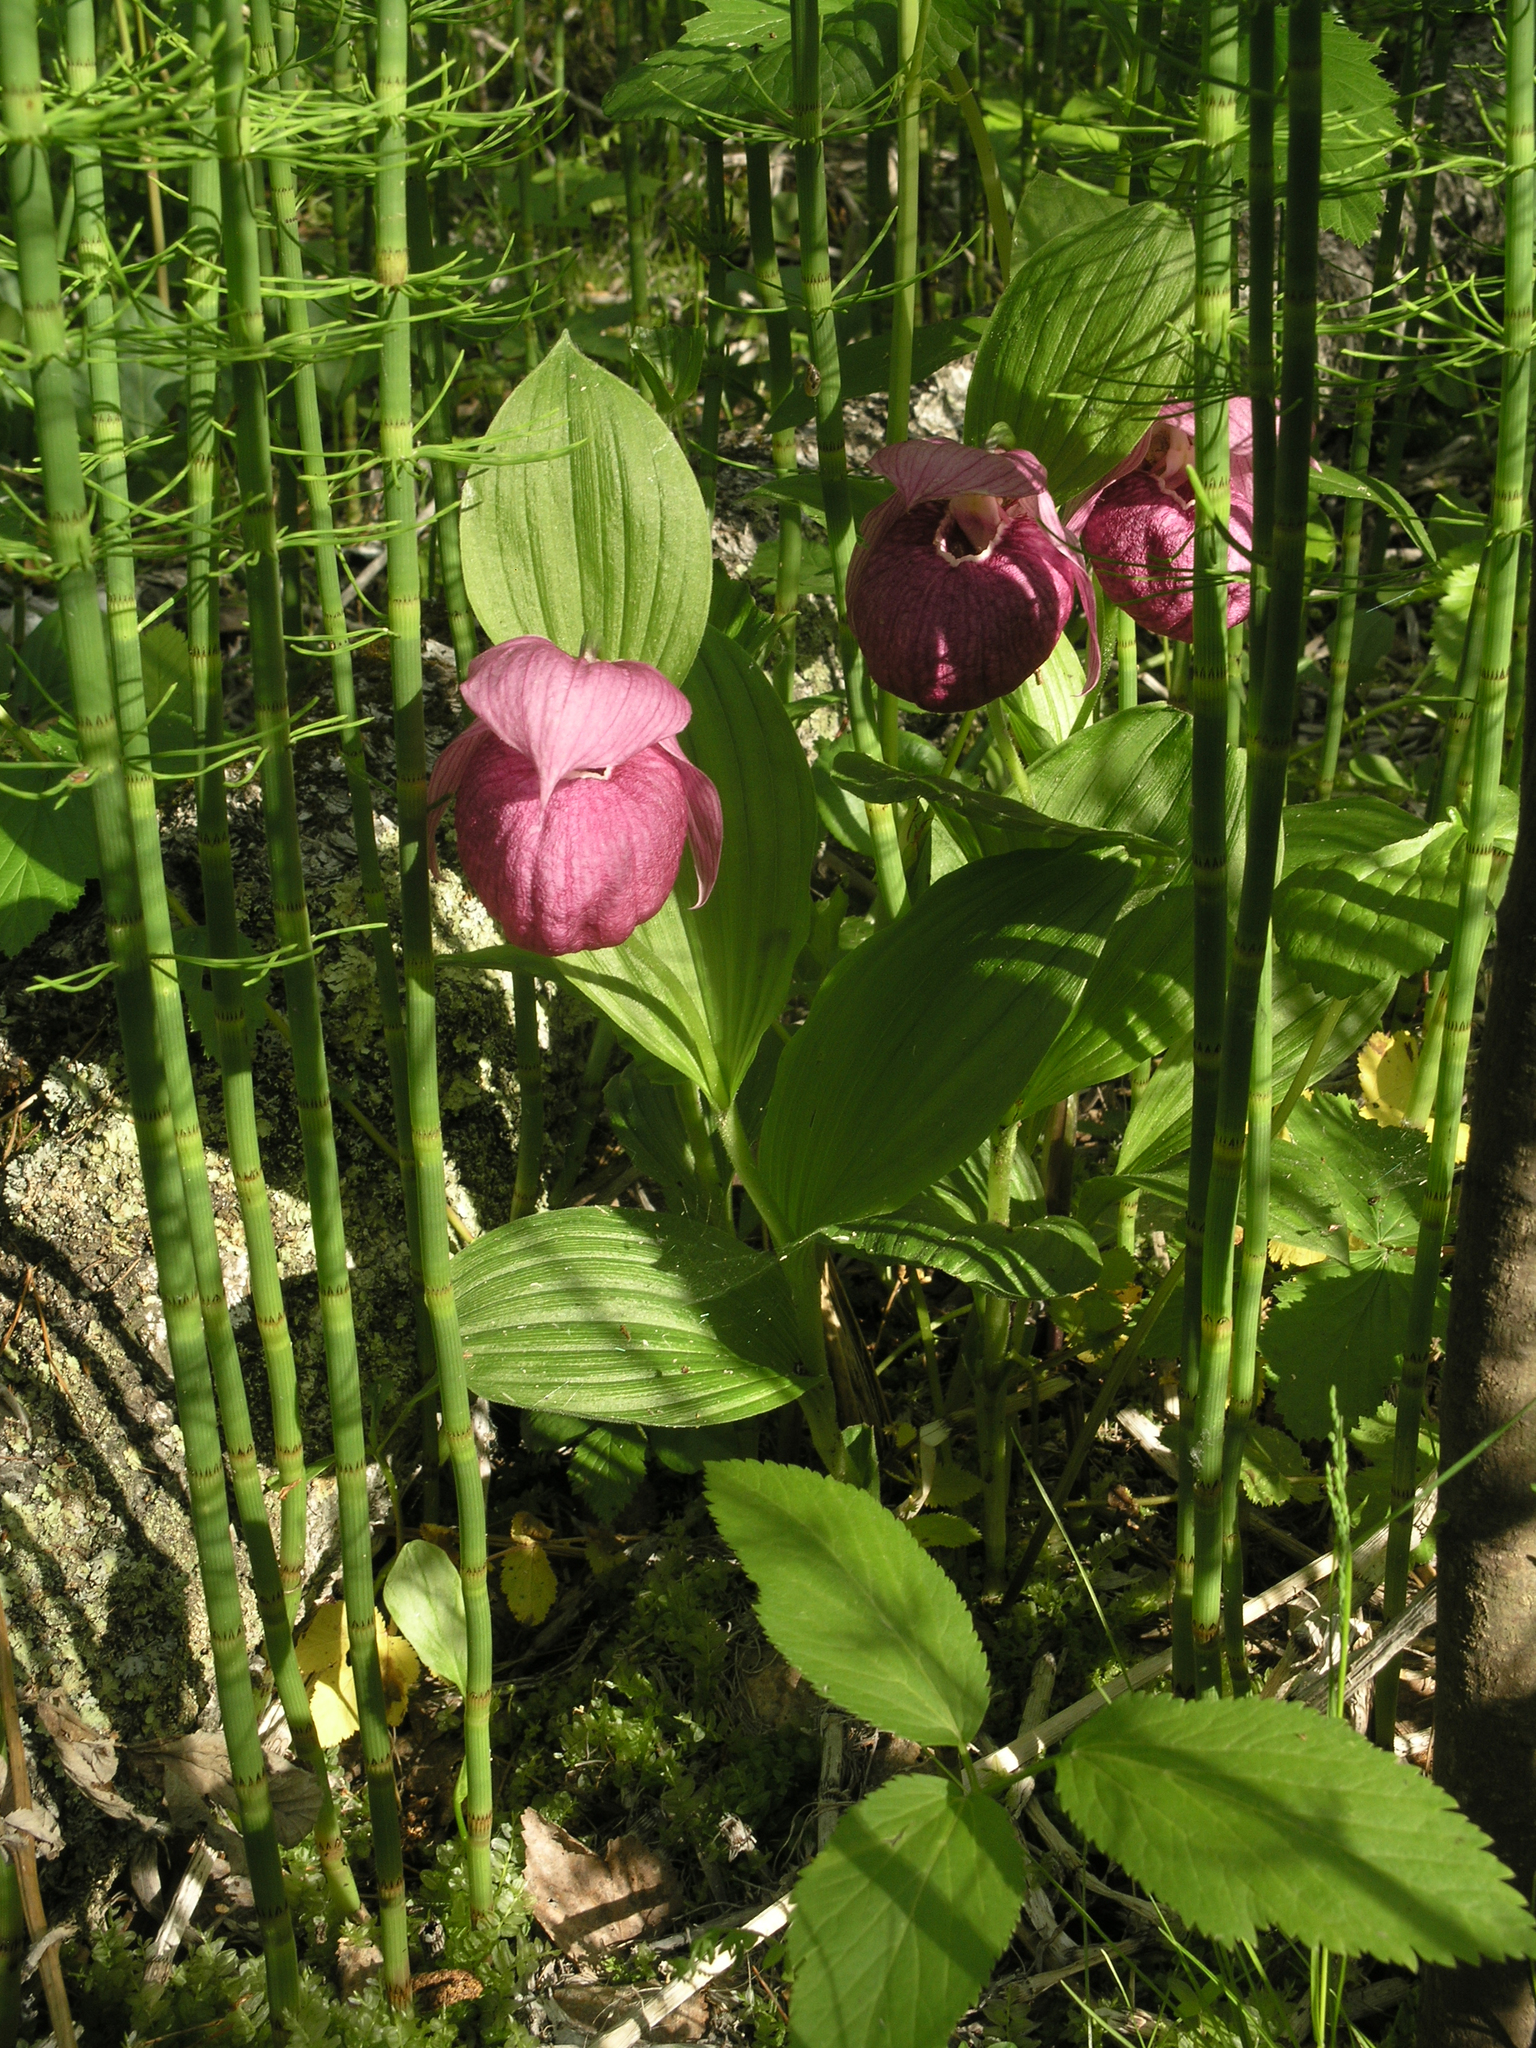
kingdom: Plantae
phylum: Tracheophyta
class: Liliopsida
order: Asparagales
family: Orchidaceae
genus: Cypripedium
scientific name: Cypripedium macranthos
